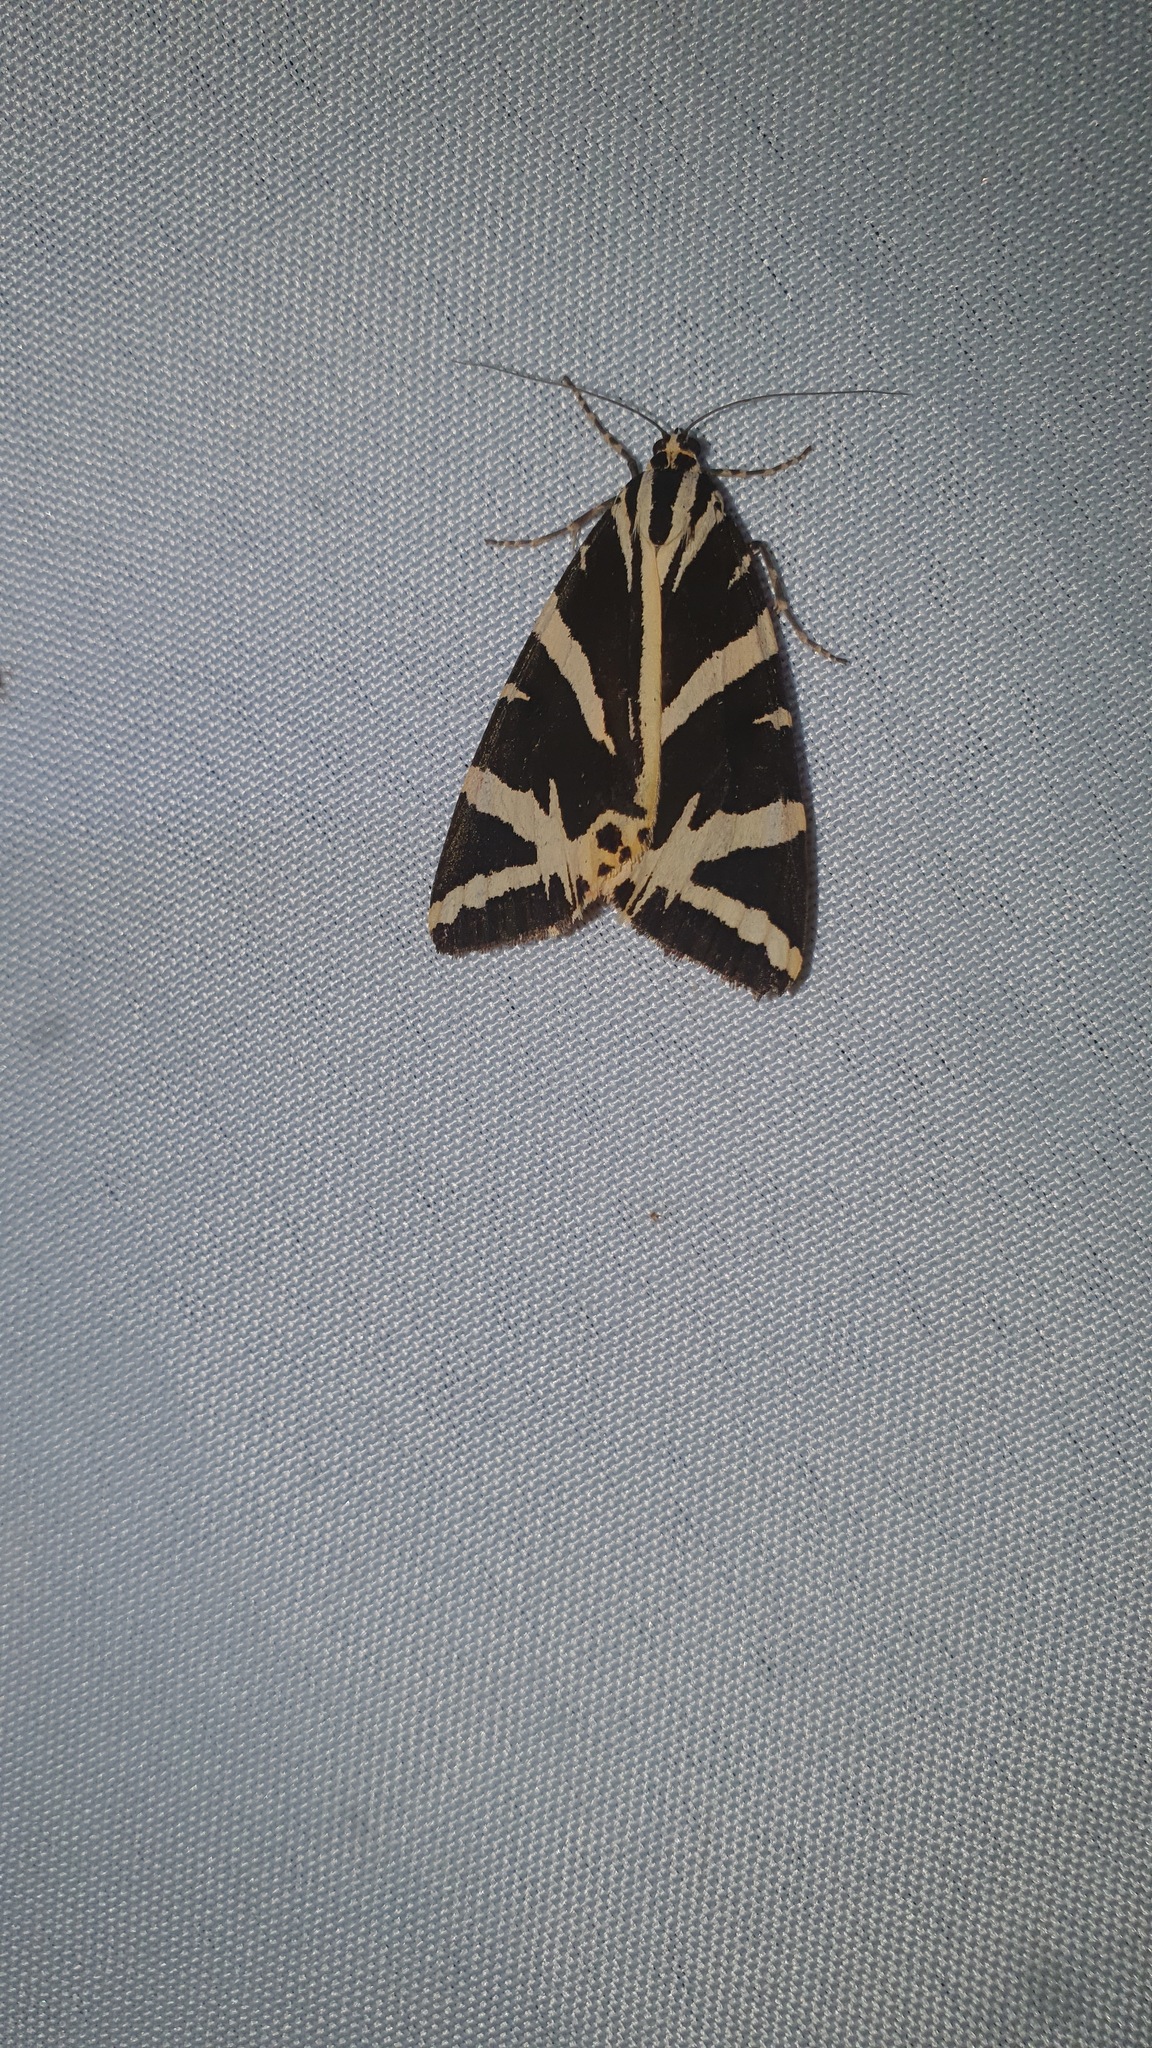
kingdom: Animalia
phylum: Arthropoda
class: Insecta
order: Lepidoptera
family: Erebidae
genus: Euplagia
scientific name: Euplagia quadripunctaria
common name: Jersey tiger
